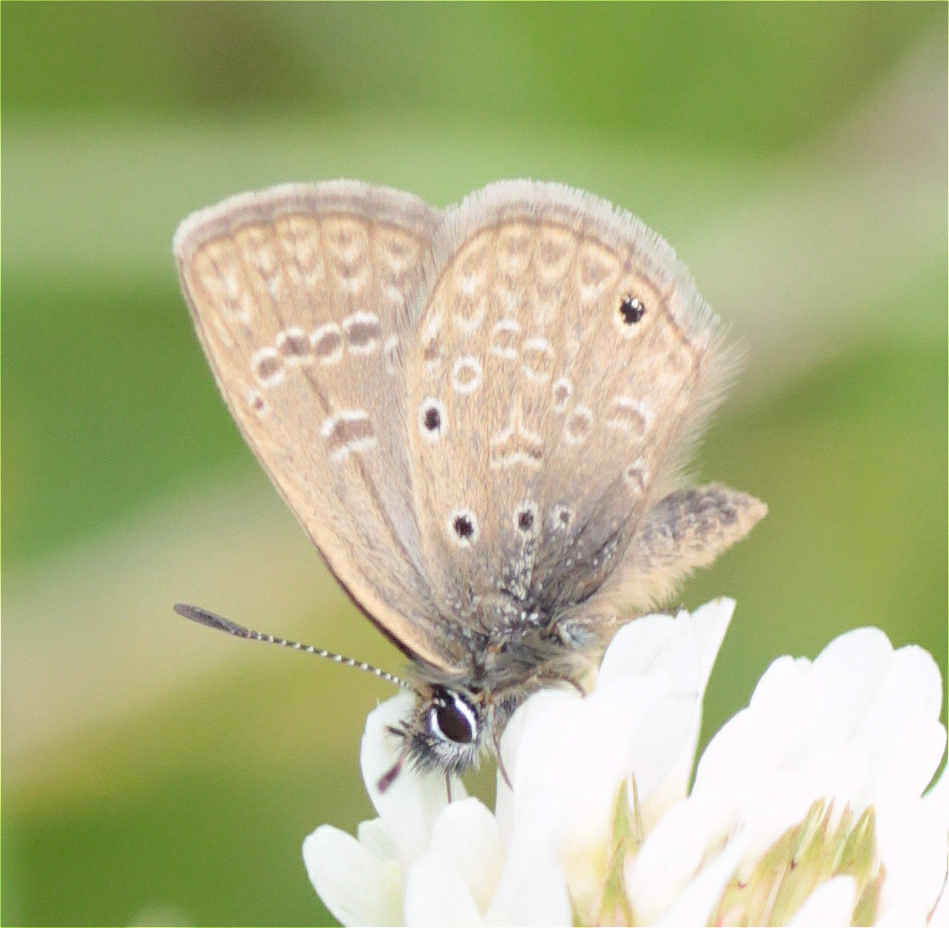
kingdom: Animalia
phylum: Arthropoda
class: Insecta
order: Lepidoptera
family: Lycaenidae
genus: Hemiargus
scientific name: Hemiargus hanno
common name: Common blue
